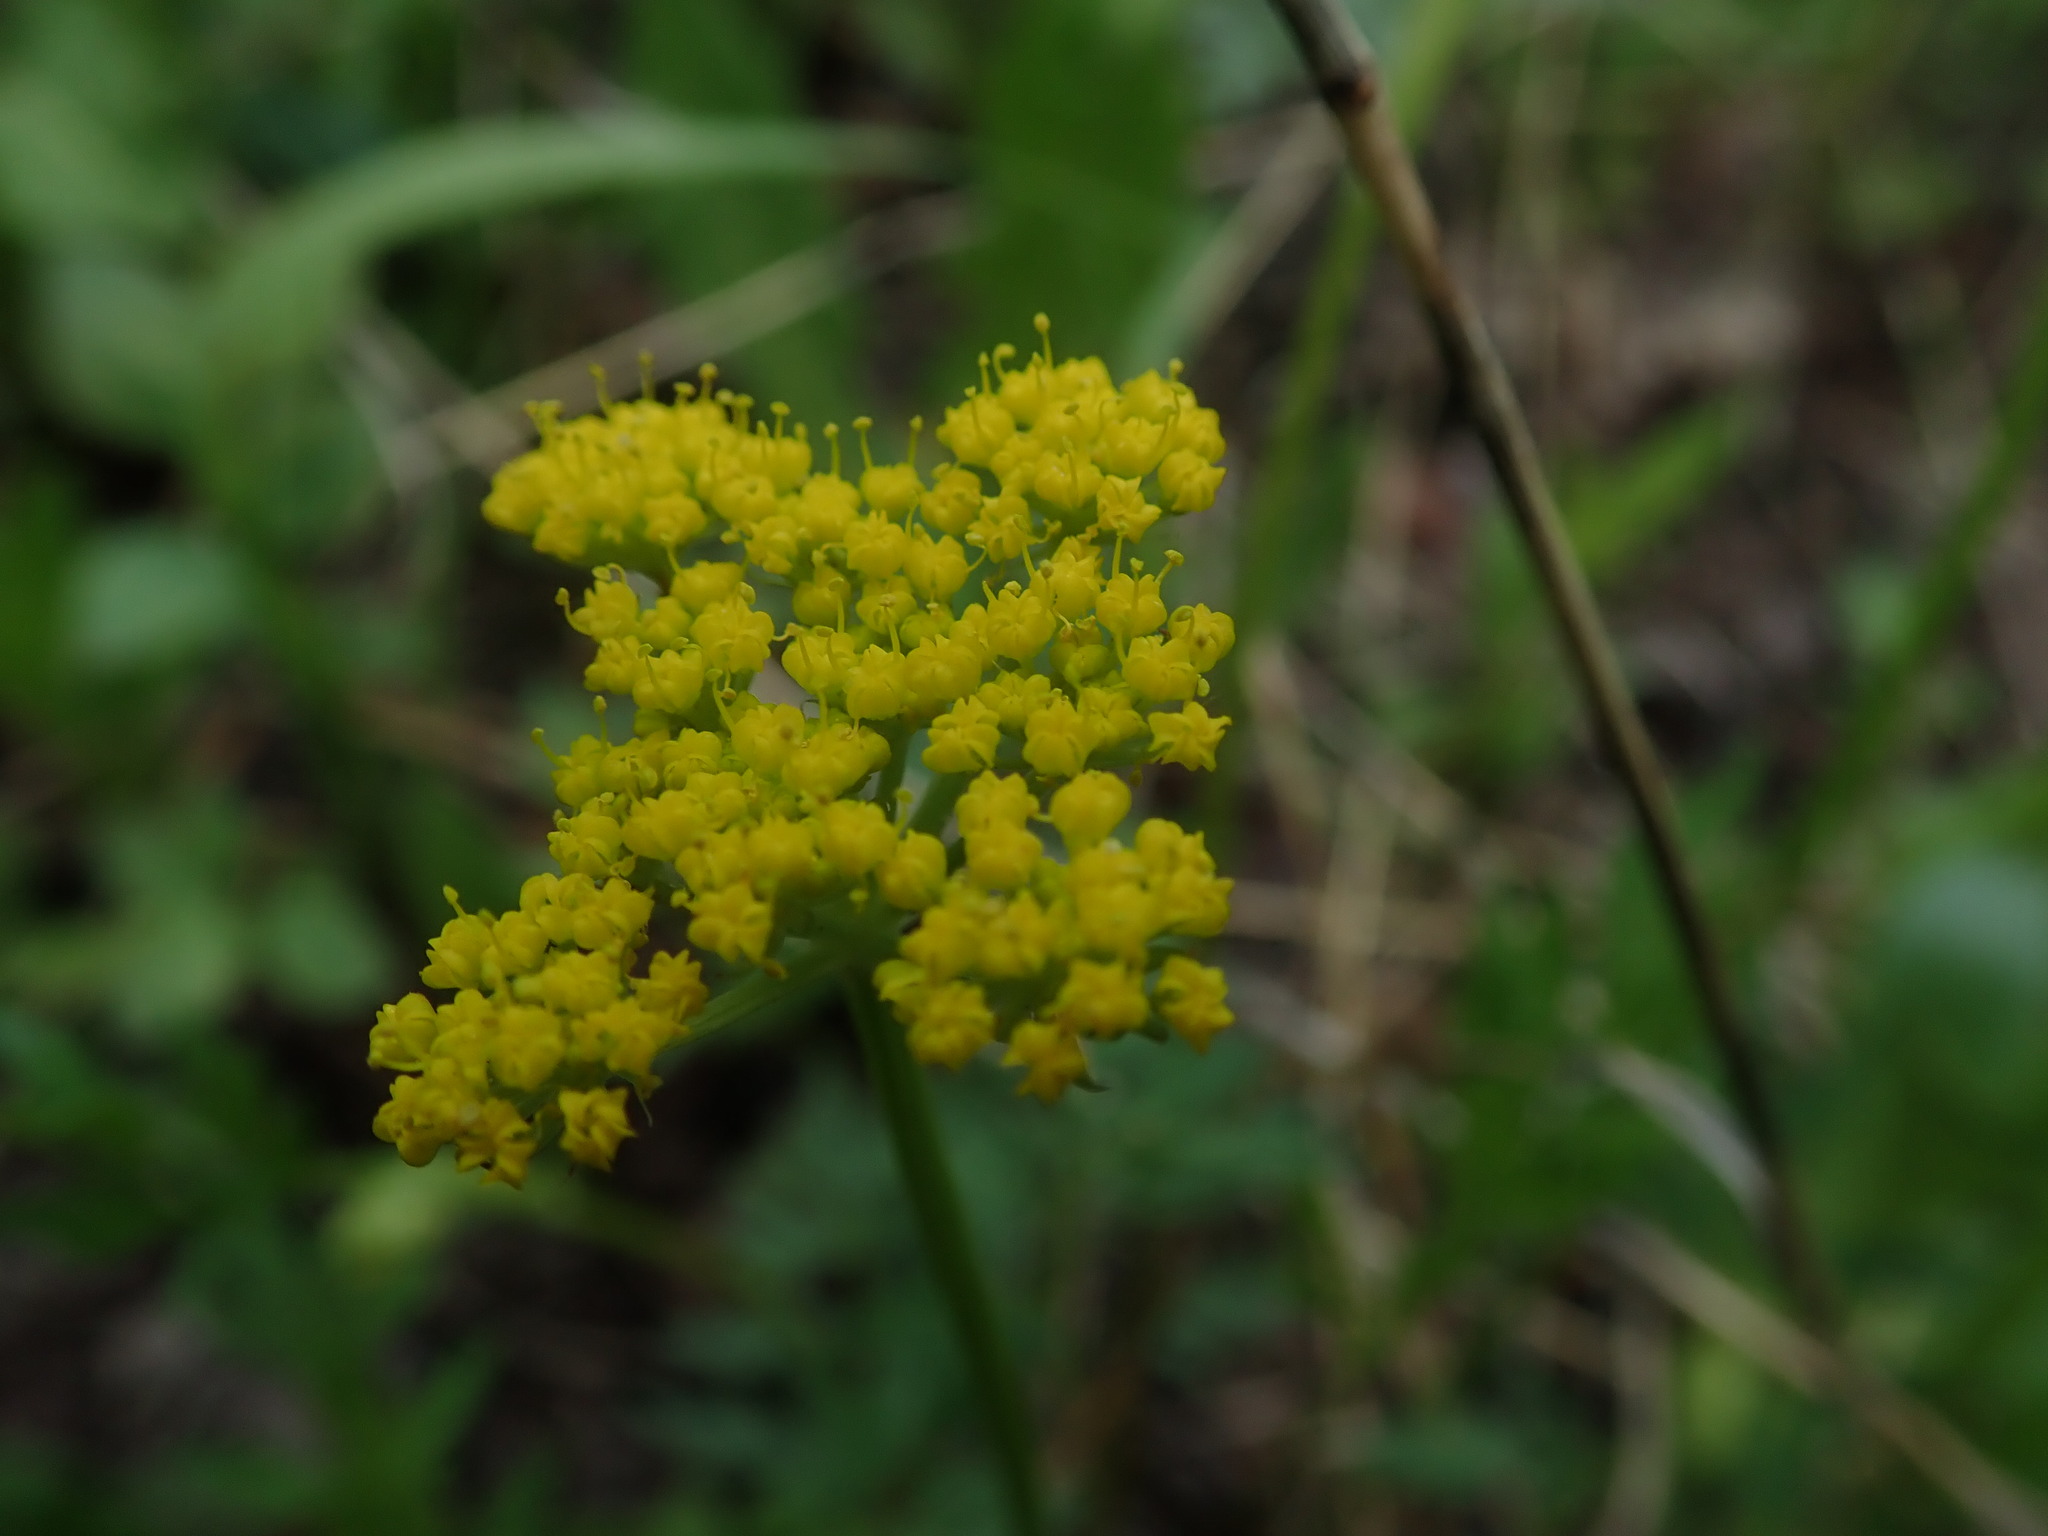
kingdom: Plantae
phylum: Tracheophyta
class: Magnoliopsida
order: Apiales
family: Apiaceae
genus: Cymopterus
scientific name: Cymopterus lemmonii
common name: Lemmon's spring-parsley
